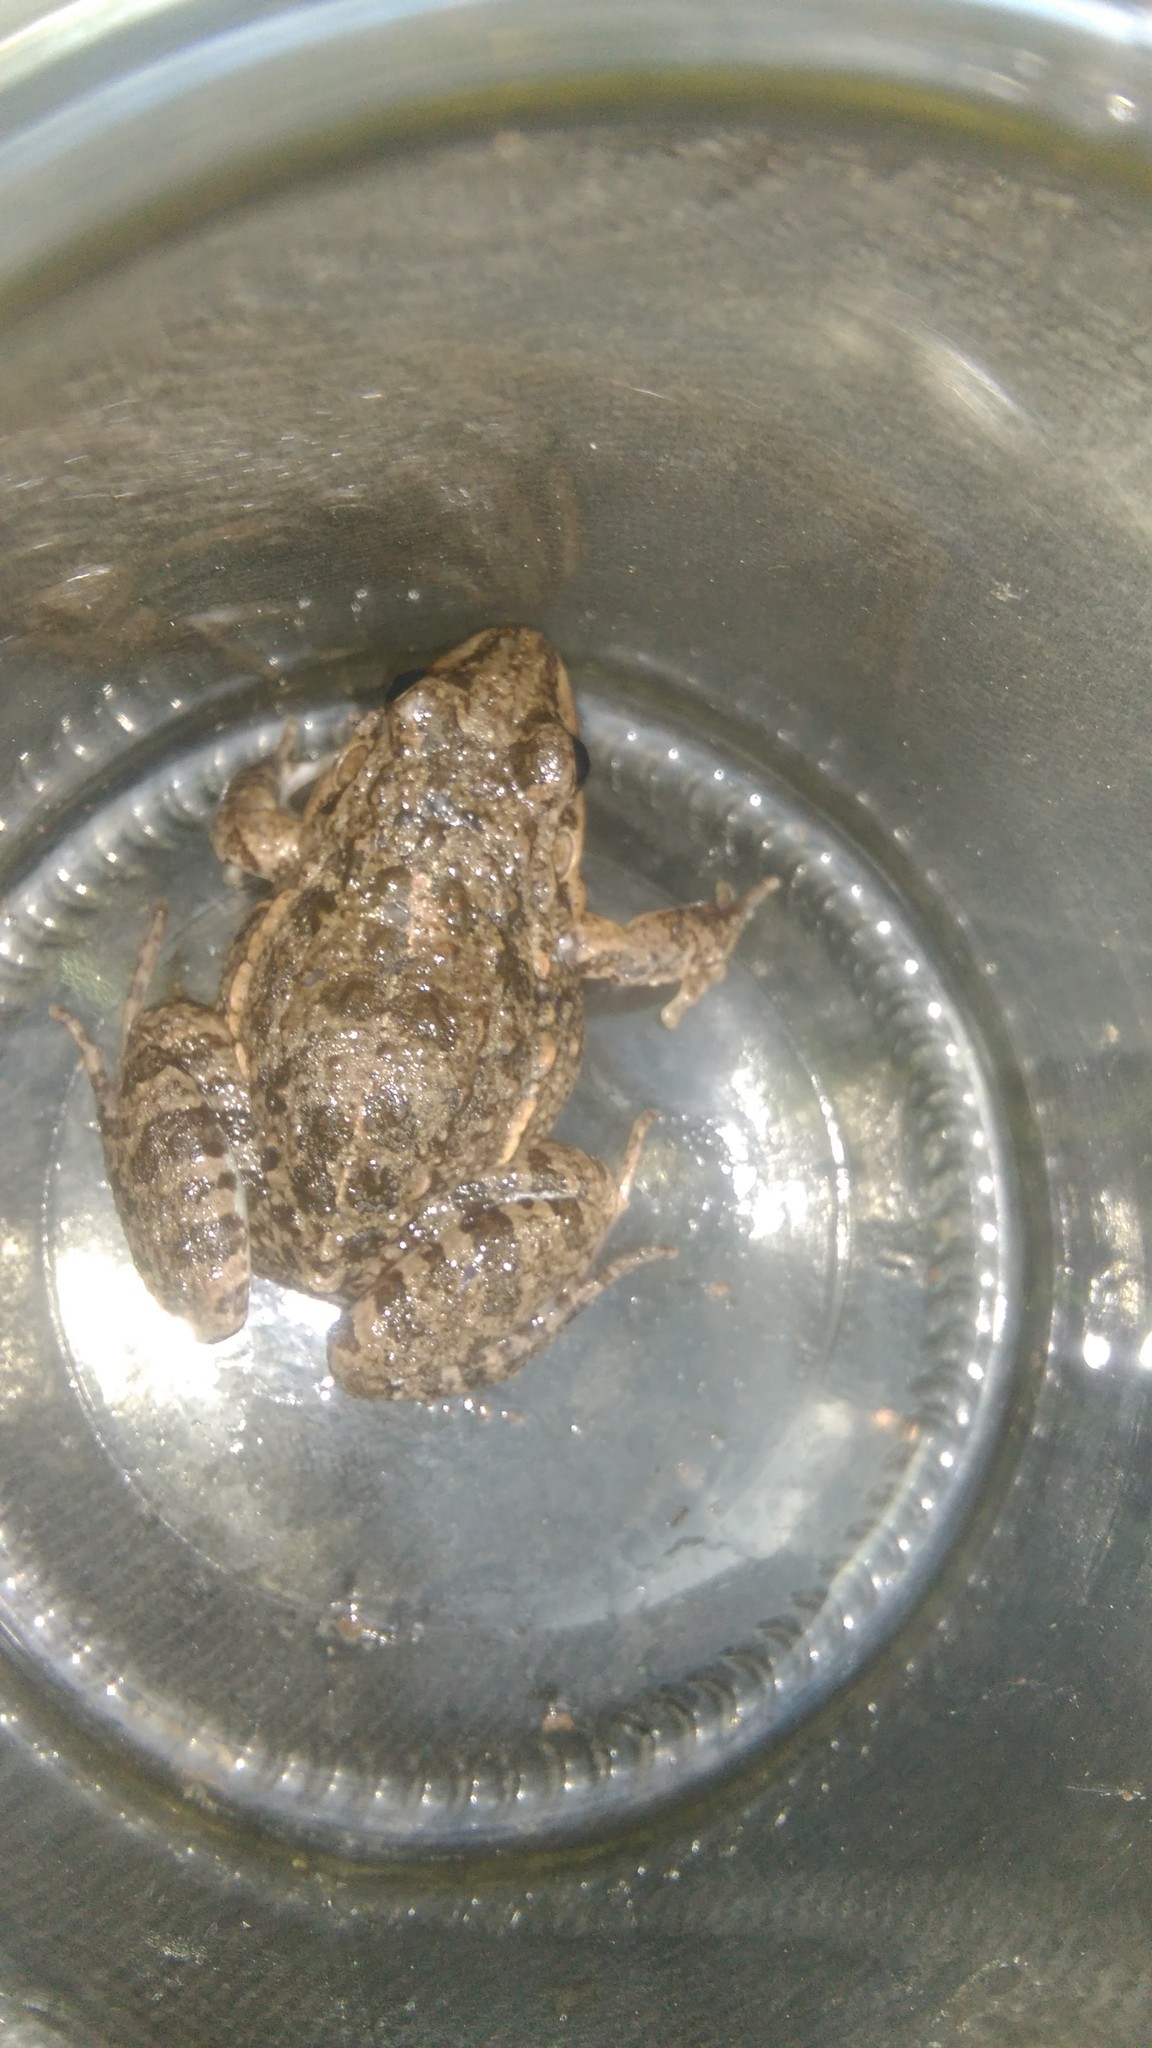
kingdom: Animalia
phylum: Chordata
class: Amphibia
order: Anura
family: Leptodactylidae
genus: Leptodactylus
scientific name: Leptodactylus latinasus
